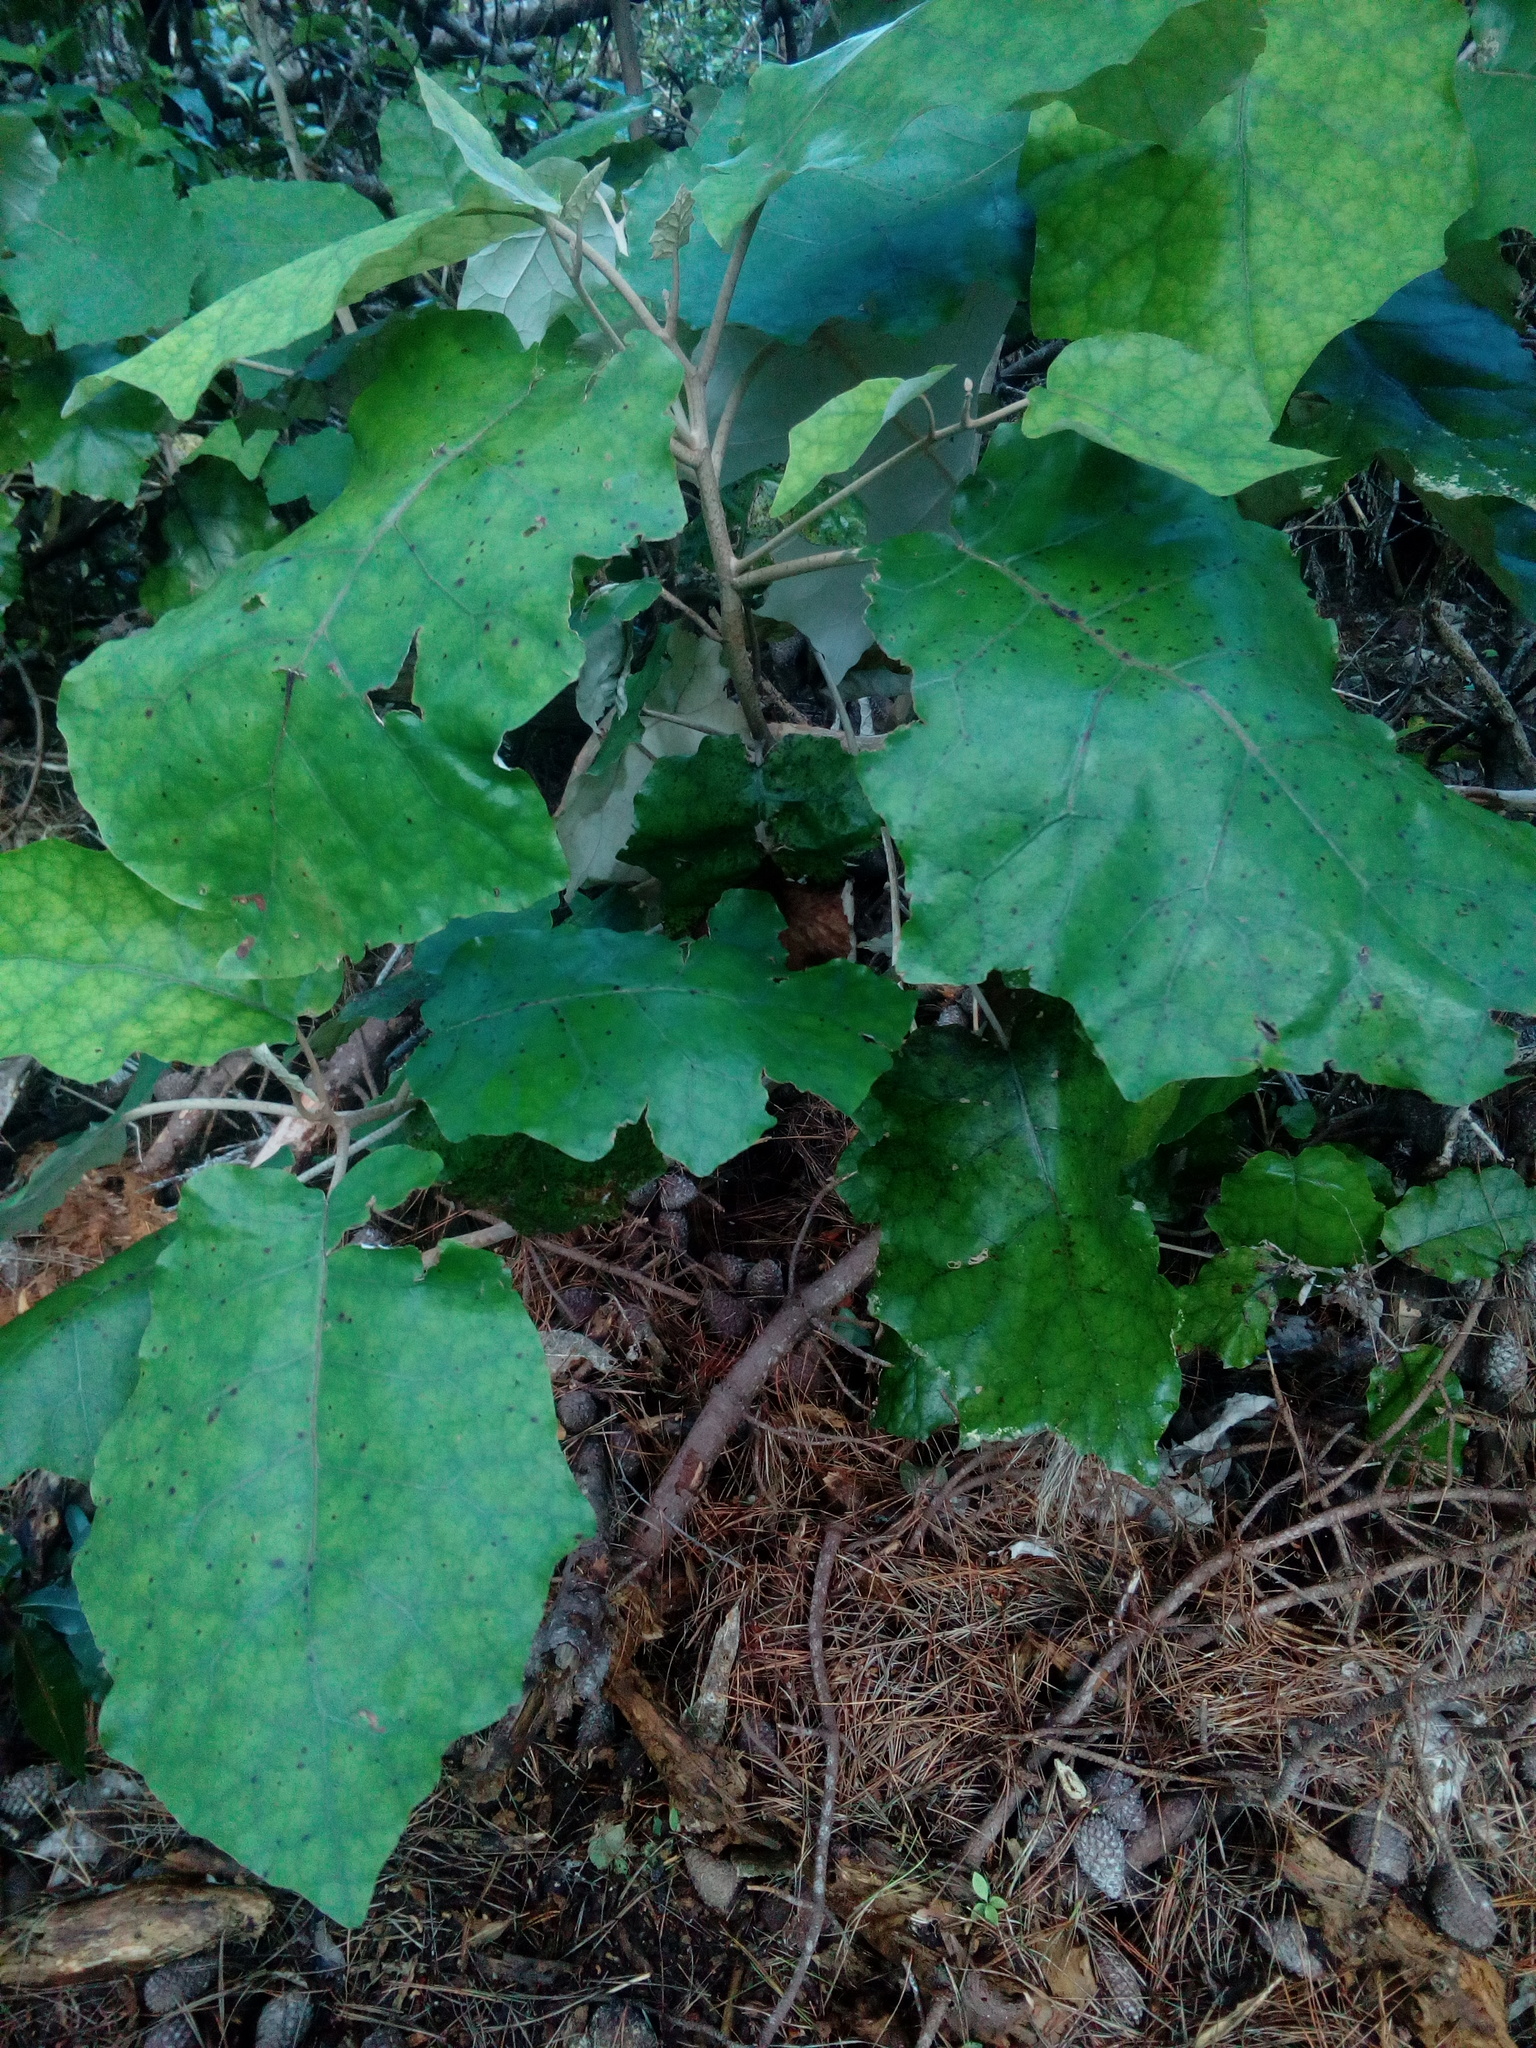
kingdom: Plantae
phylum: Tracheophyta
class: Magnoliopsida
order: Asterales
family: Asteraceae
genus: Brachyglottis
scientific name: Brachyglottis repanda
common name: Hedge ragwort
